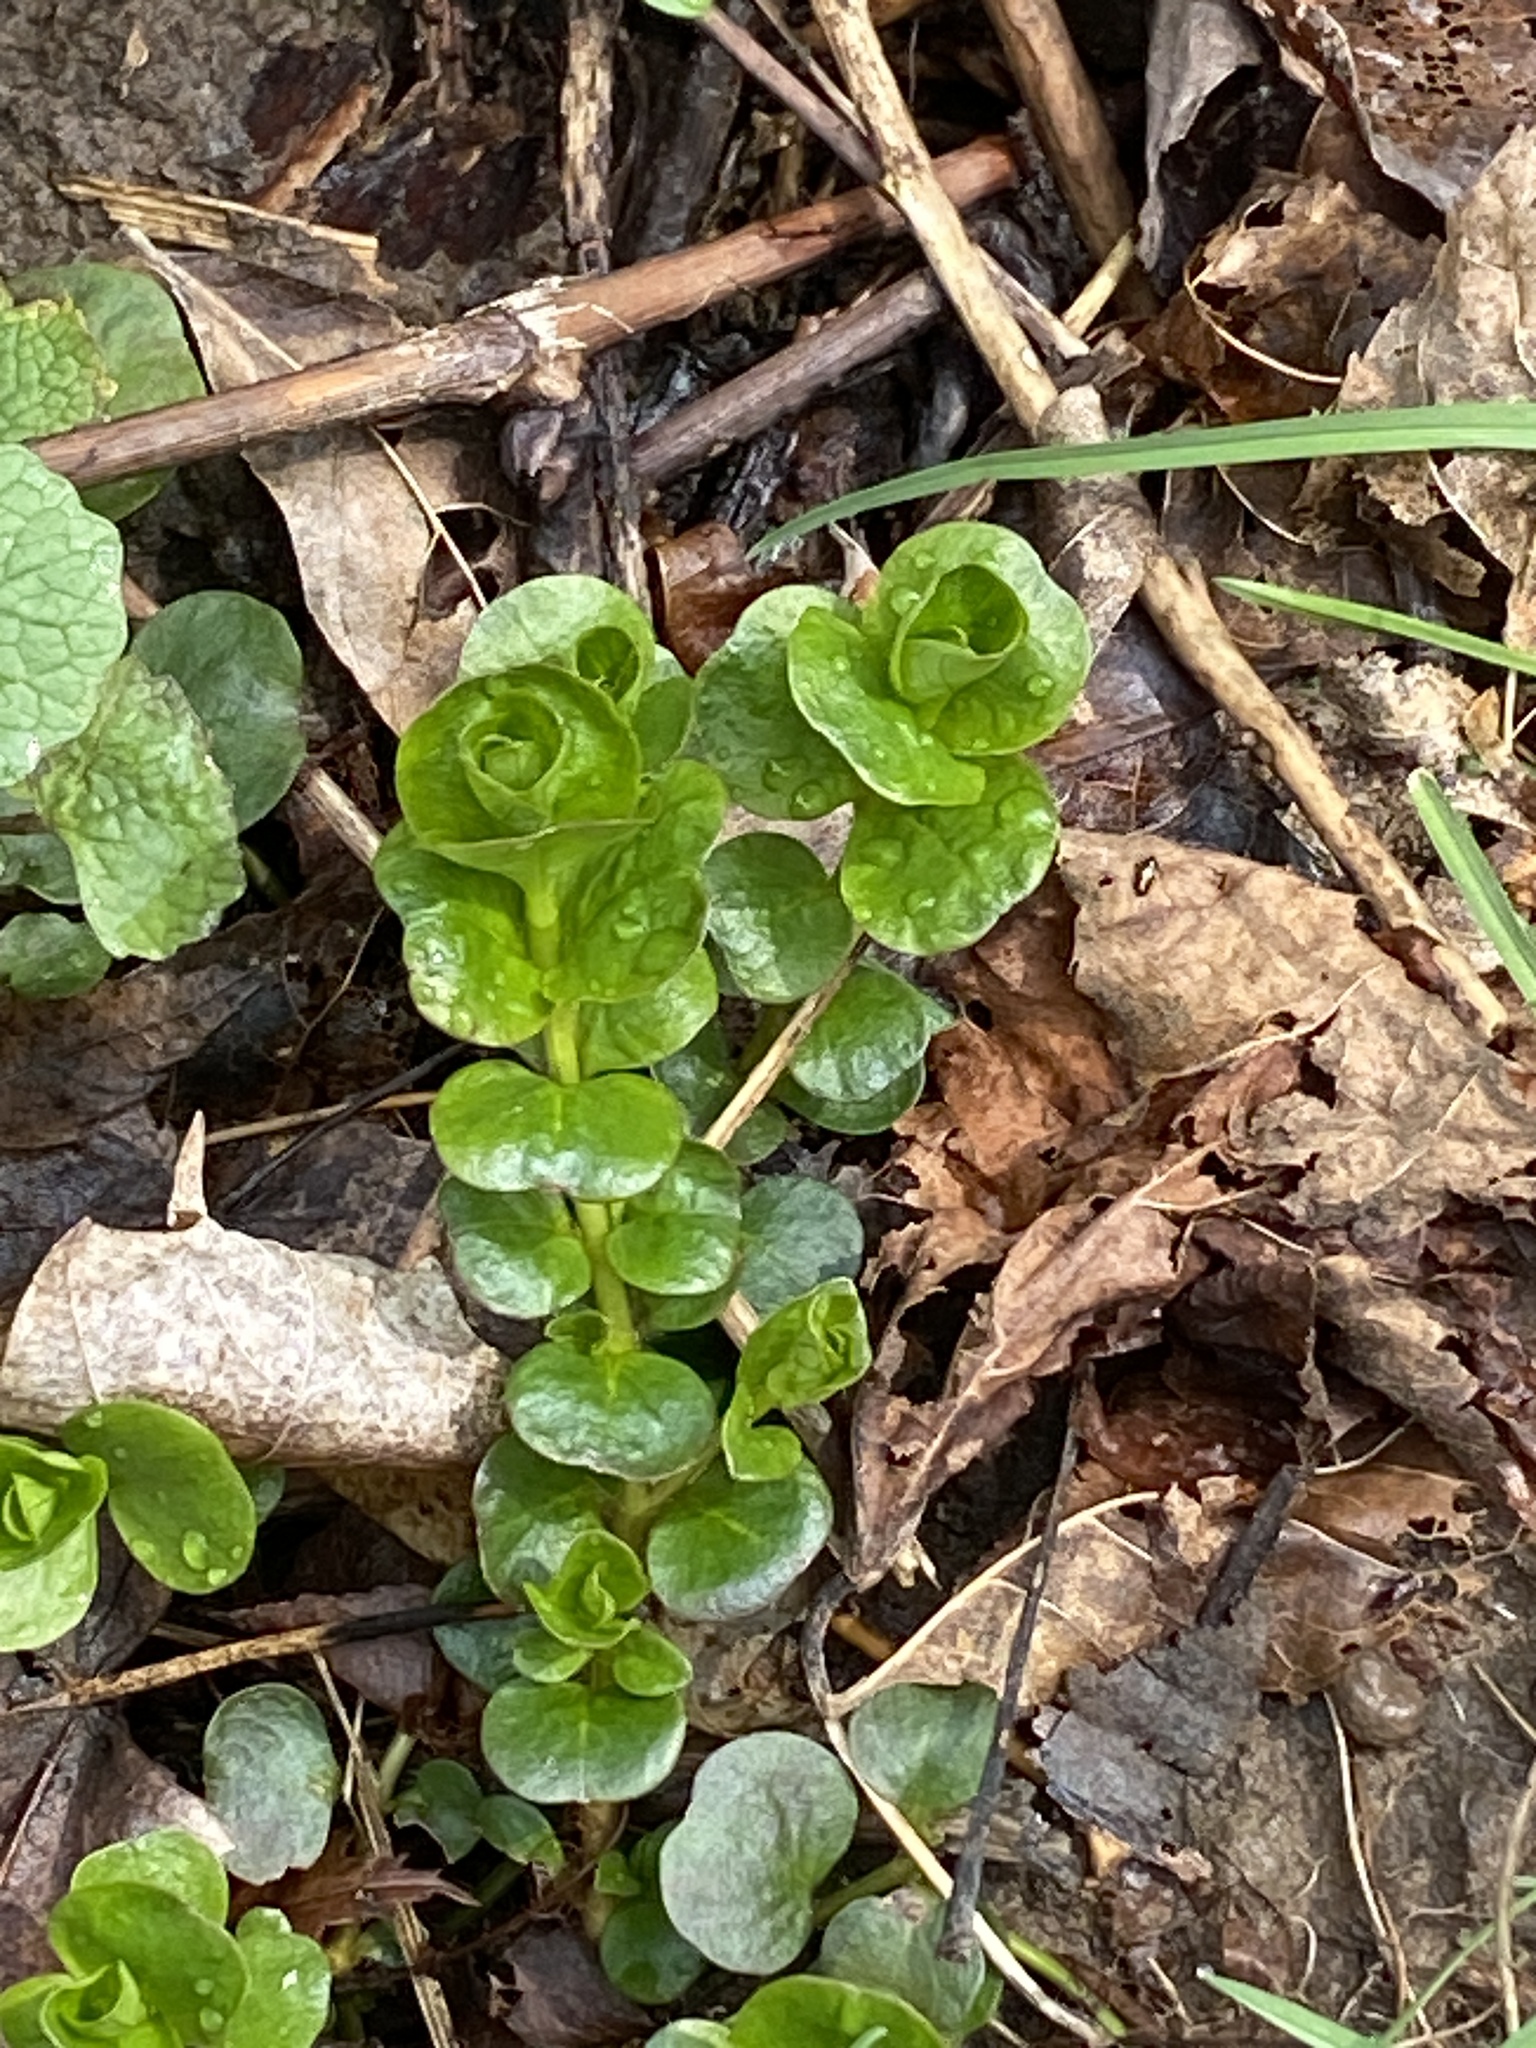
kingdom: Plantae
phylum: Tracheophyta
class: Magnoliopsida
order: Ericales
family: Primulaceae
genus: Lysimachia
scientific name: Lysimachia nummularia
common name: Moneywort
